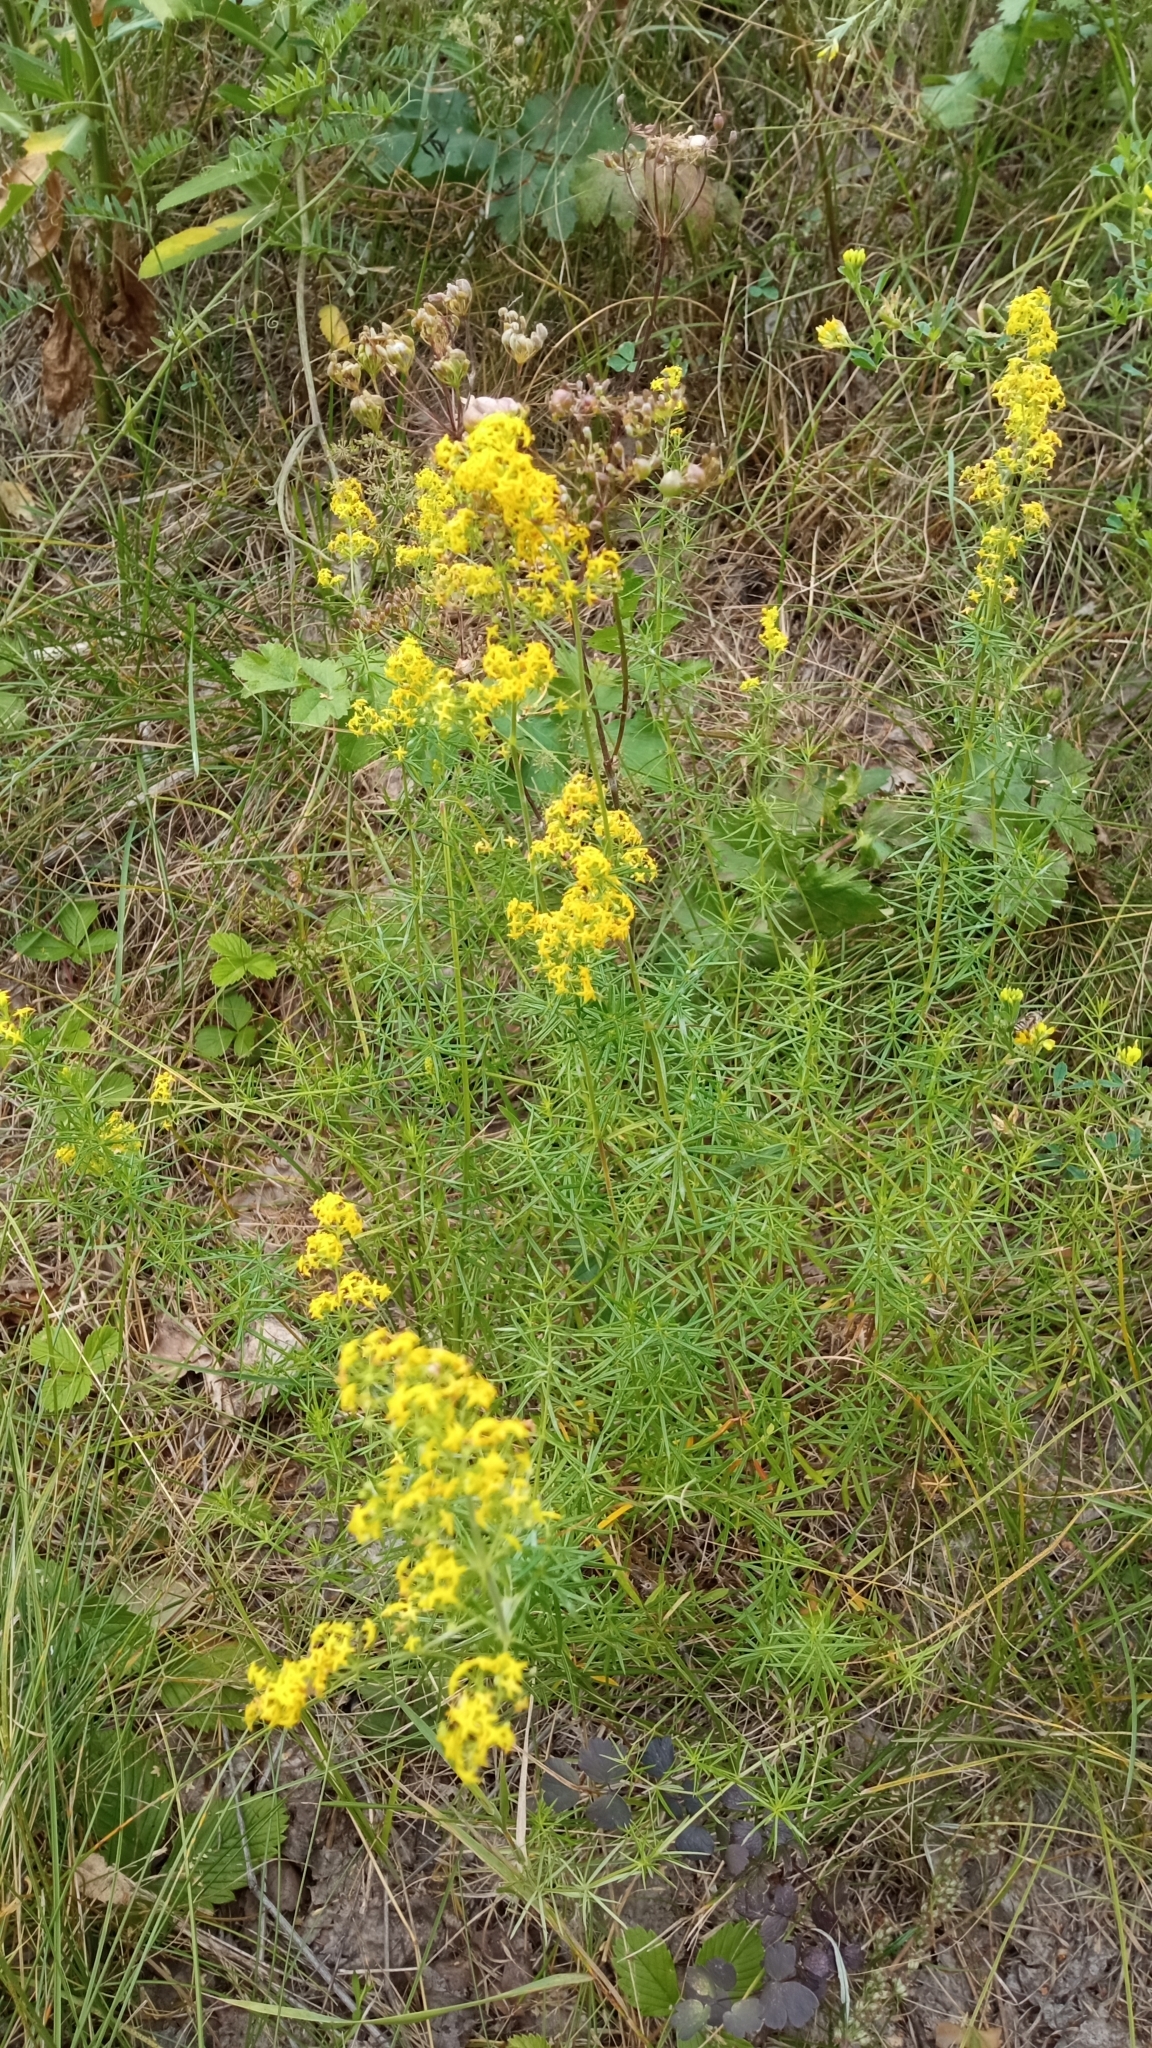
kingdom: Plantae
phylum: Tracheophyta
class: Magnoliopsida
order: Gentianales
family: Rubiaceae
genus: Galium
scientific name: Galium verum
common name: Lady's bedstraw
